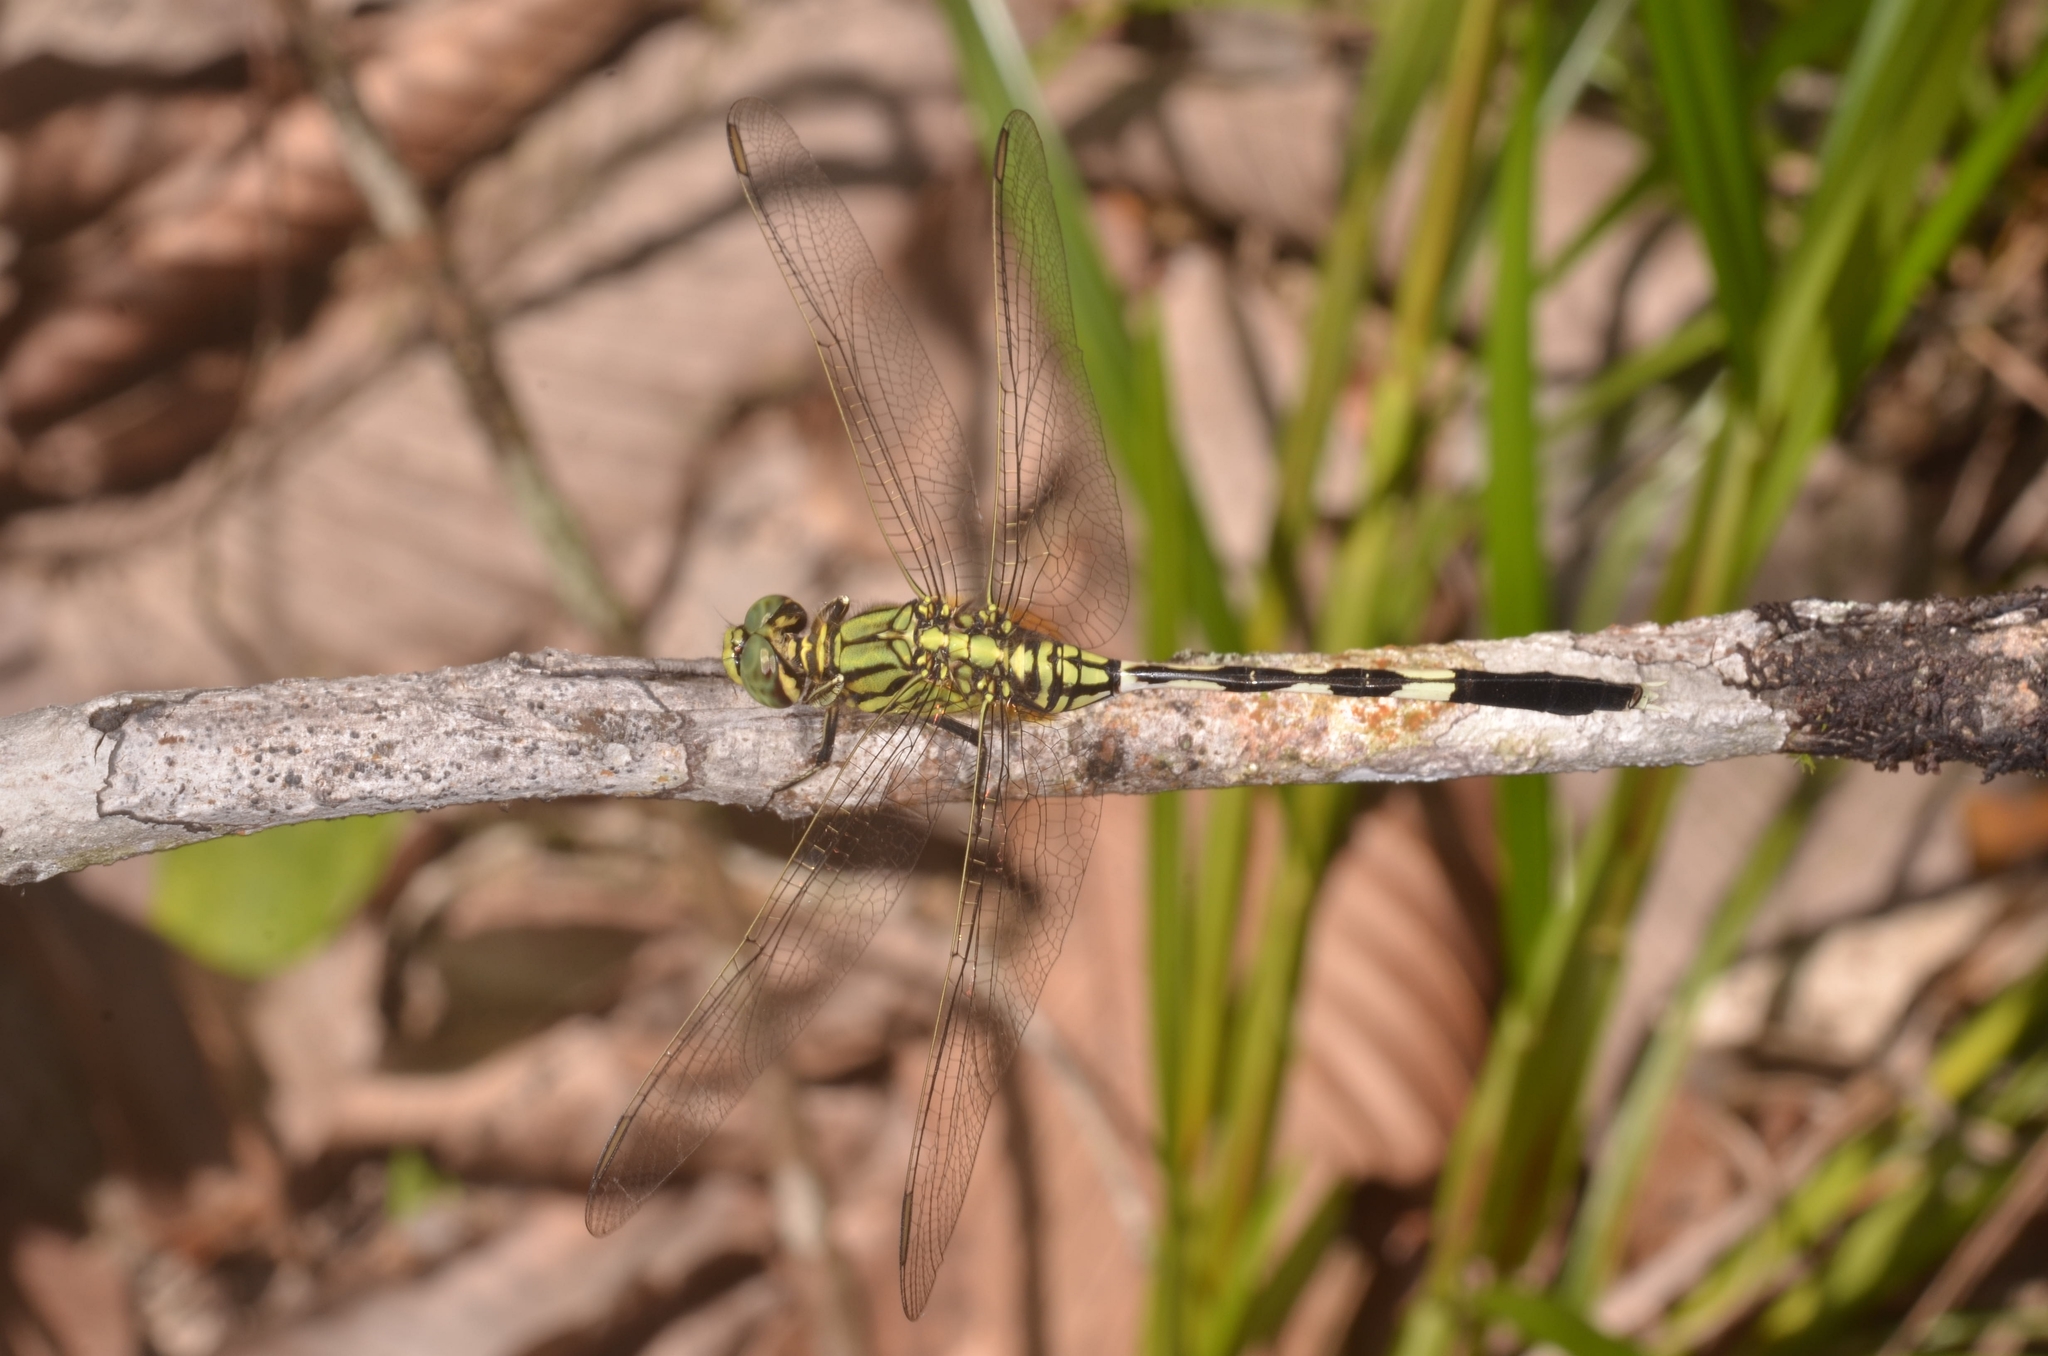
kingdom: Animalia
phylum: Arthropoda
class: Insecta
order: Odonata
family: Libellulidae
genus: Orthetrum
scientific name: Orthetrum sabina
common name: Slender skimmer
